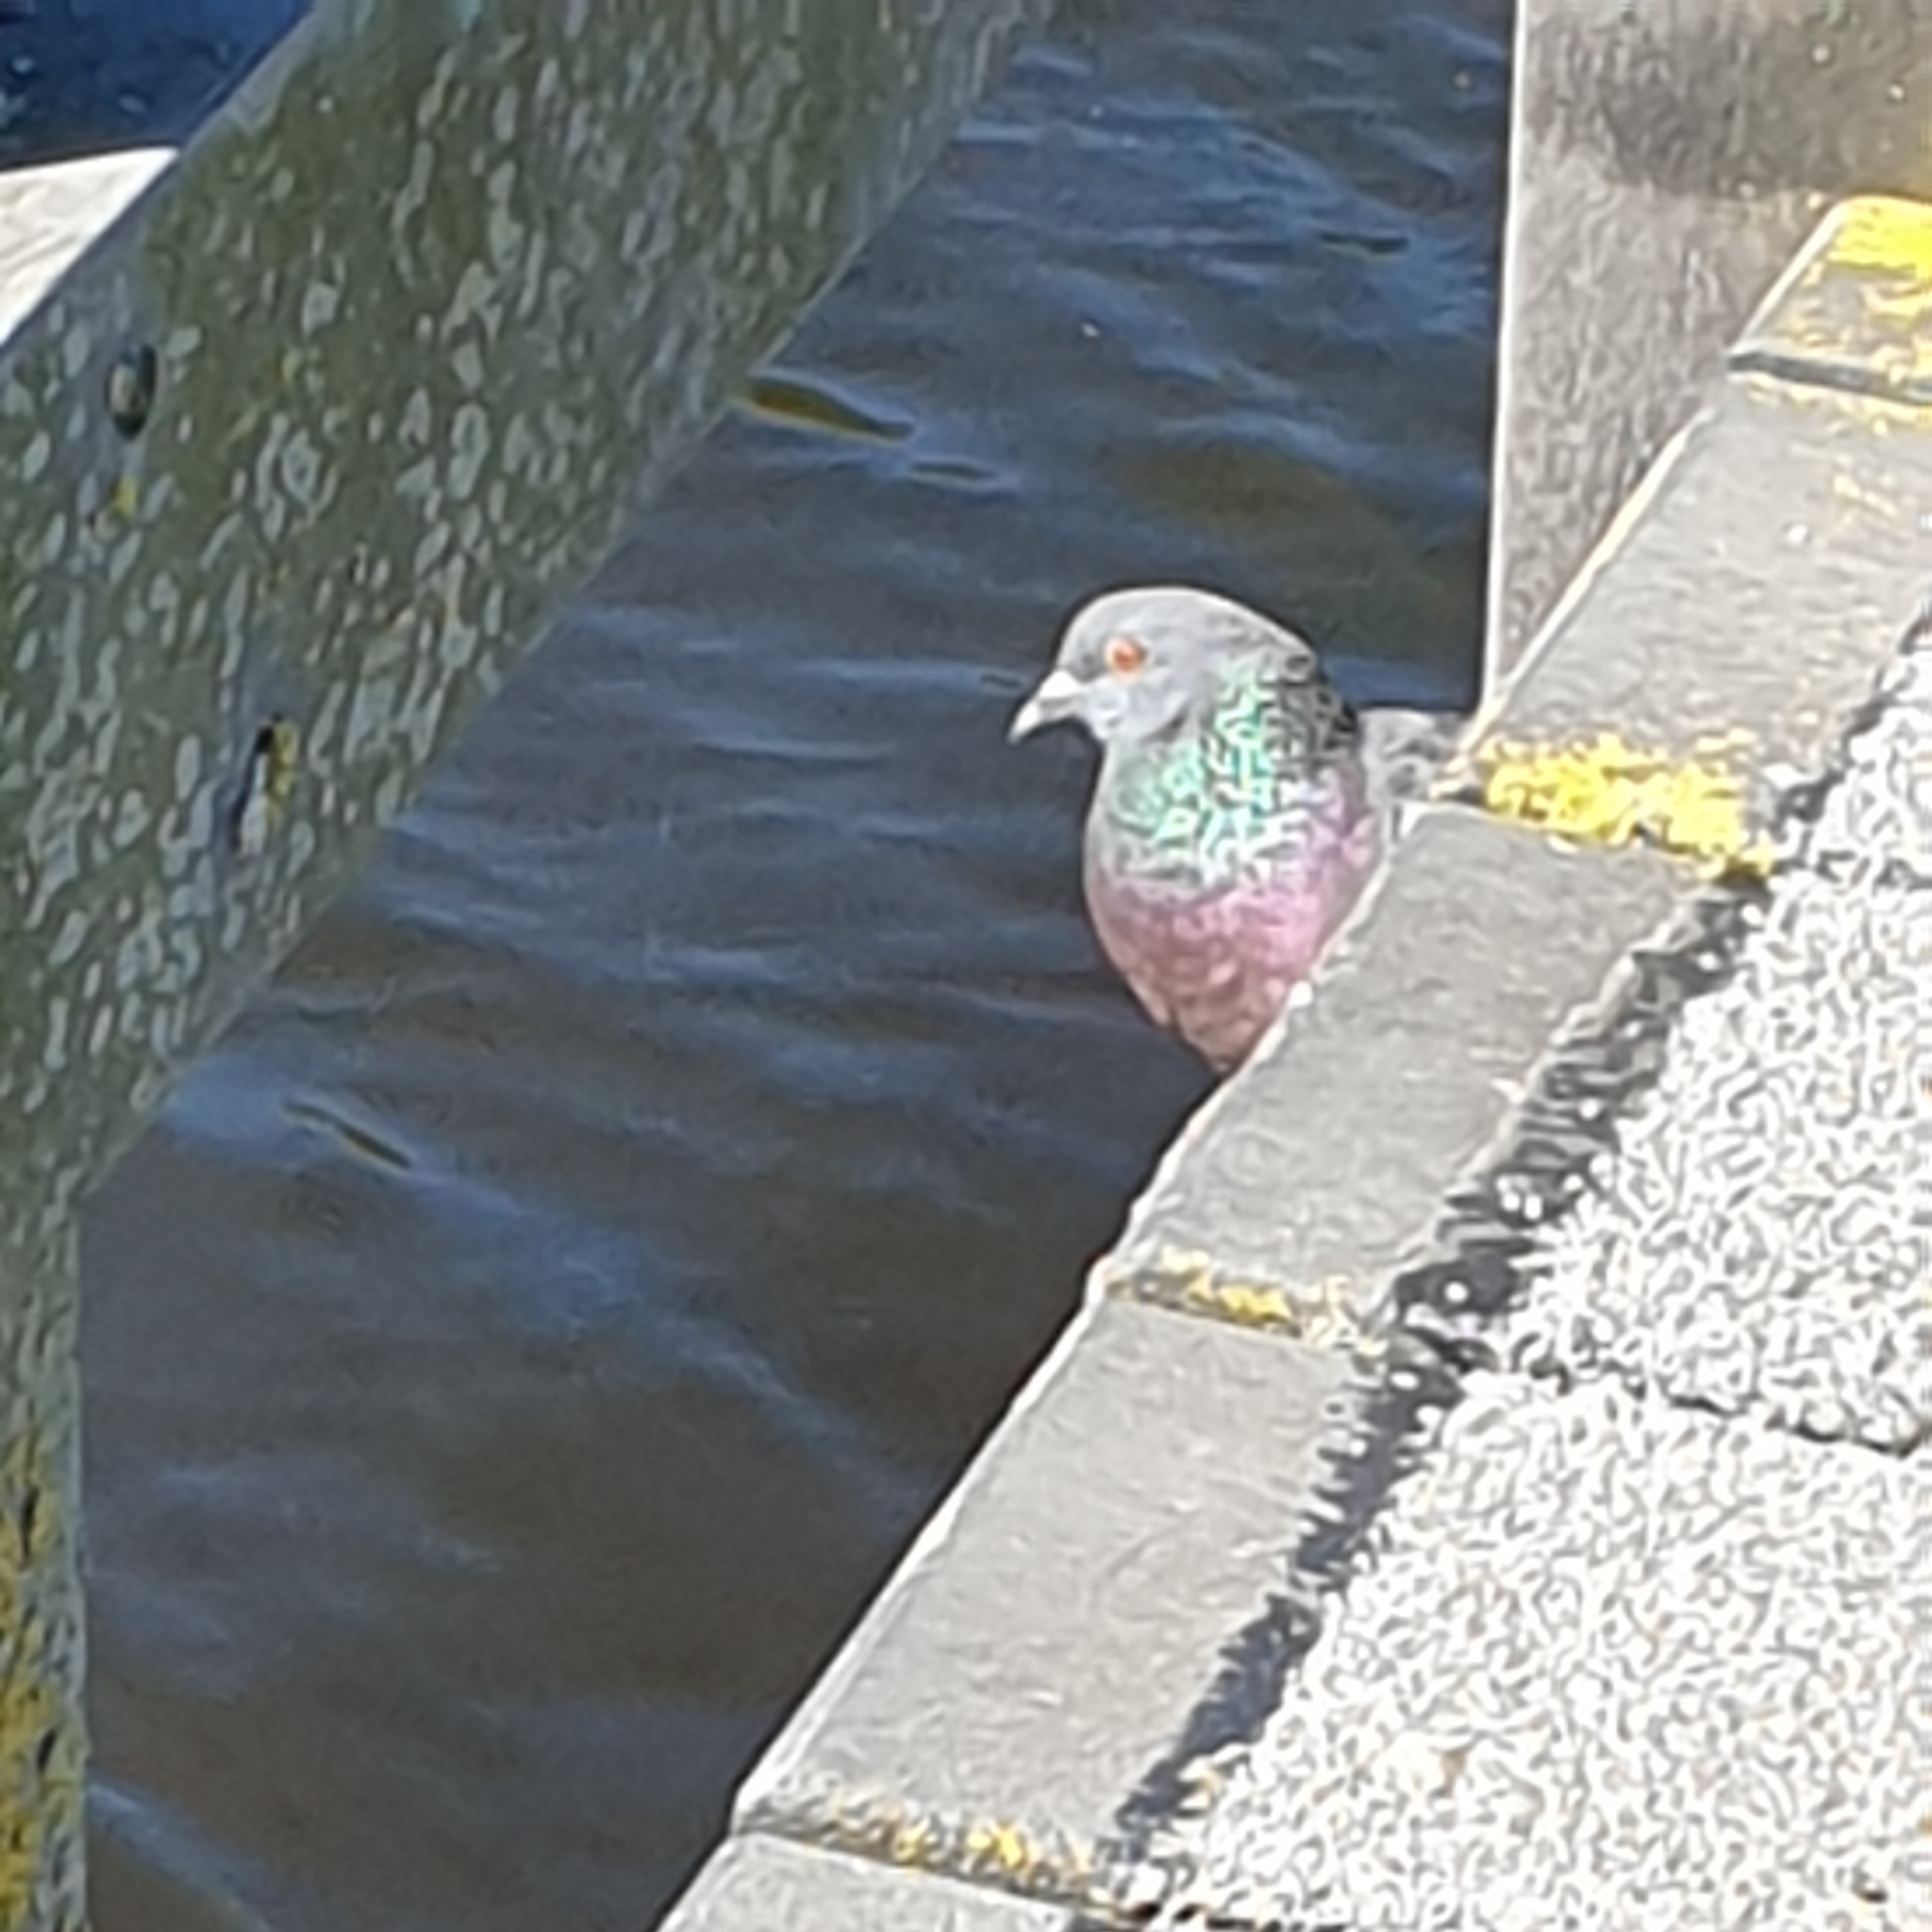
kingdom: Animalia
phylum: Chordata
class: Aves
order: Columbiformes
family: Columbidae
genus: Columba
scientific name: Columba livia
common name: Rock pigeon
